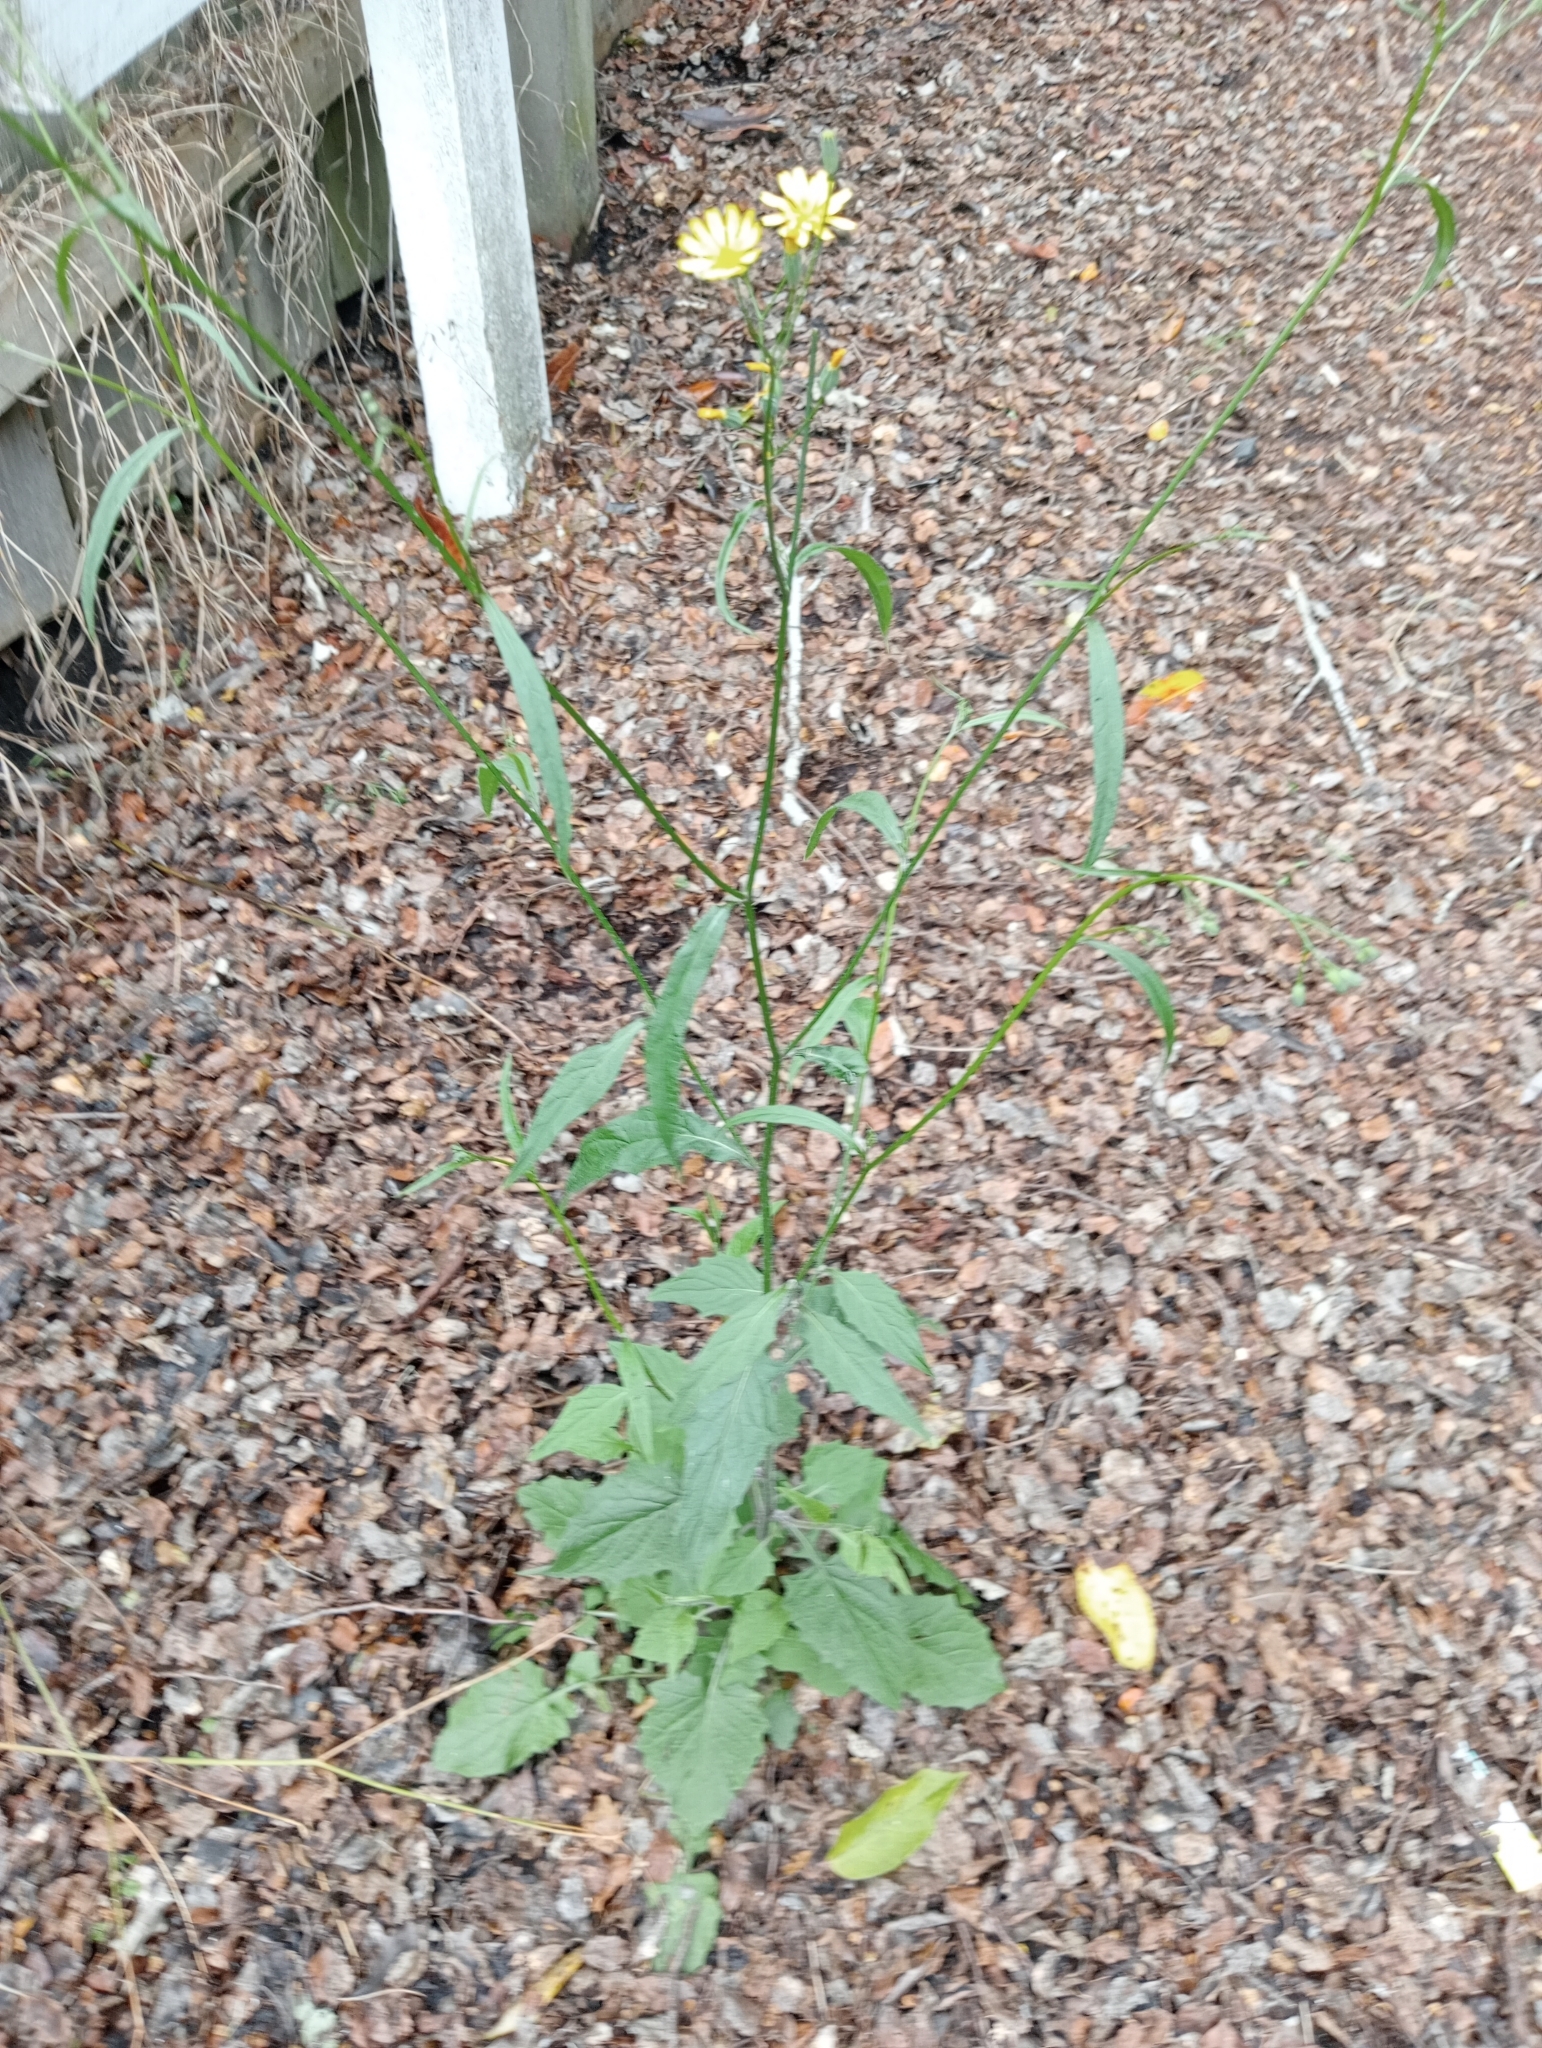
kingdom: Plantae
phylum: Tracheophyta
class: Magnoliopsida
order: Asterales
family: Asteraceae
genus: Lapsana
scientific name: Lapsana communis
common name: Nipplewort
